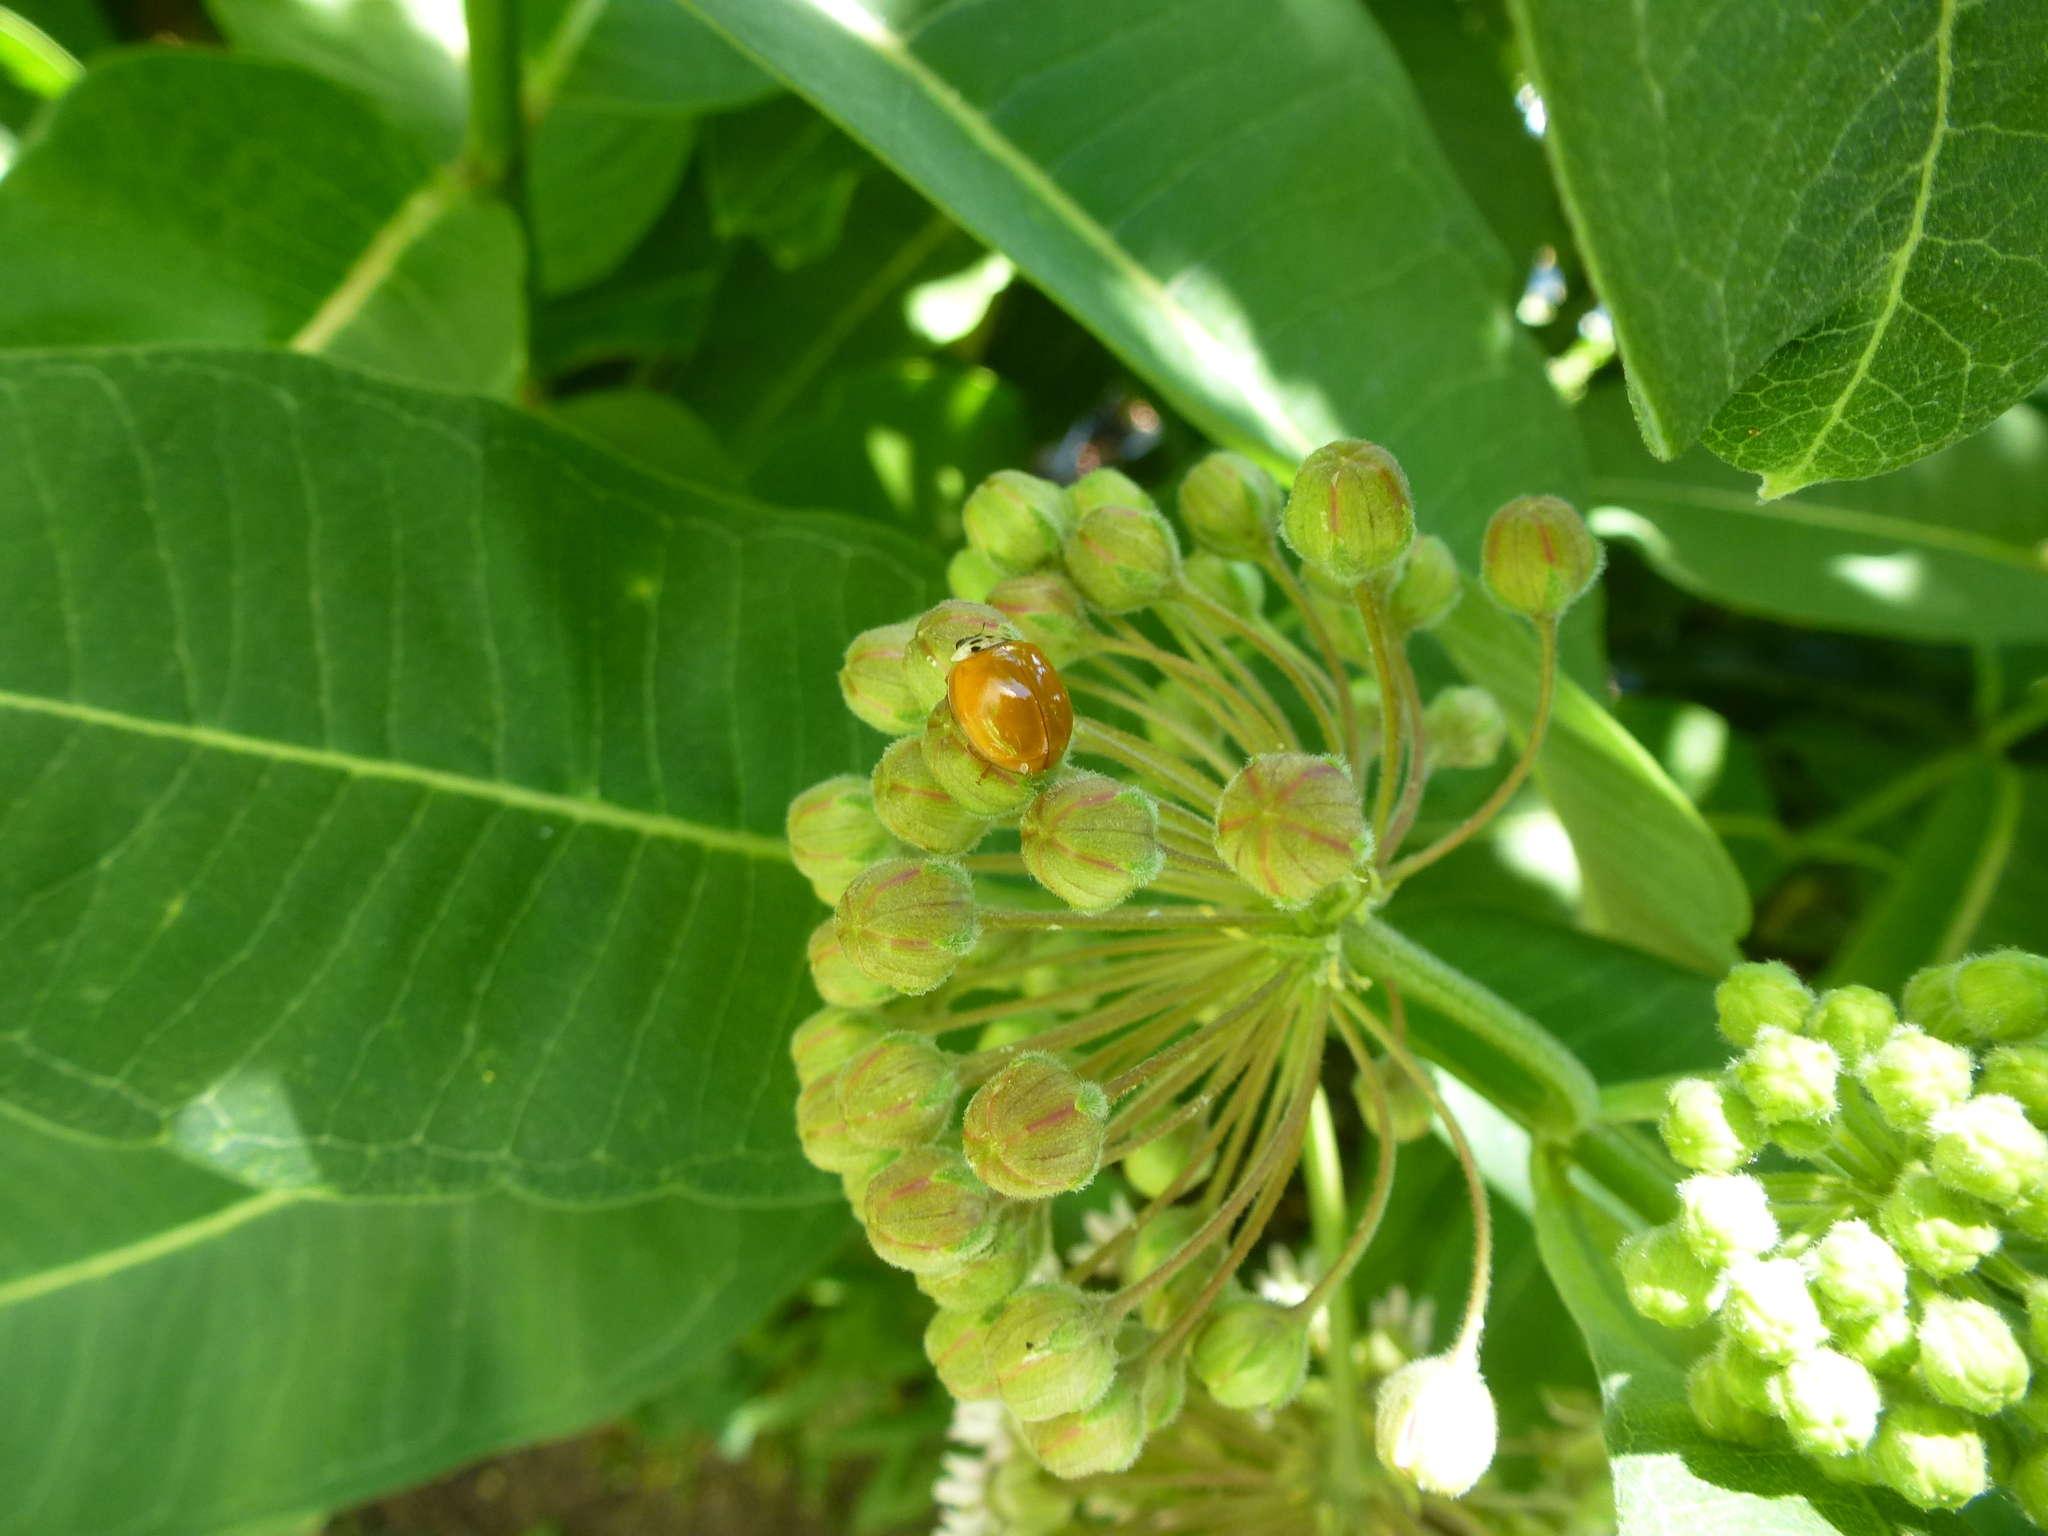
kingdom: Animalia
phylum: Arthropoda
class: Insecta
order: Coleoptera
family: Coccinellidae
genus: Harmonia
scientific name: Harmonia axyridis
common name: Harlequin ladybird
